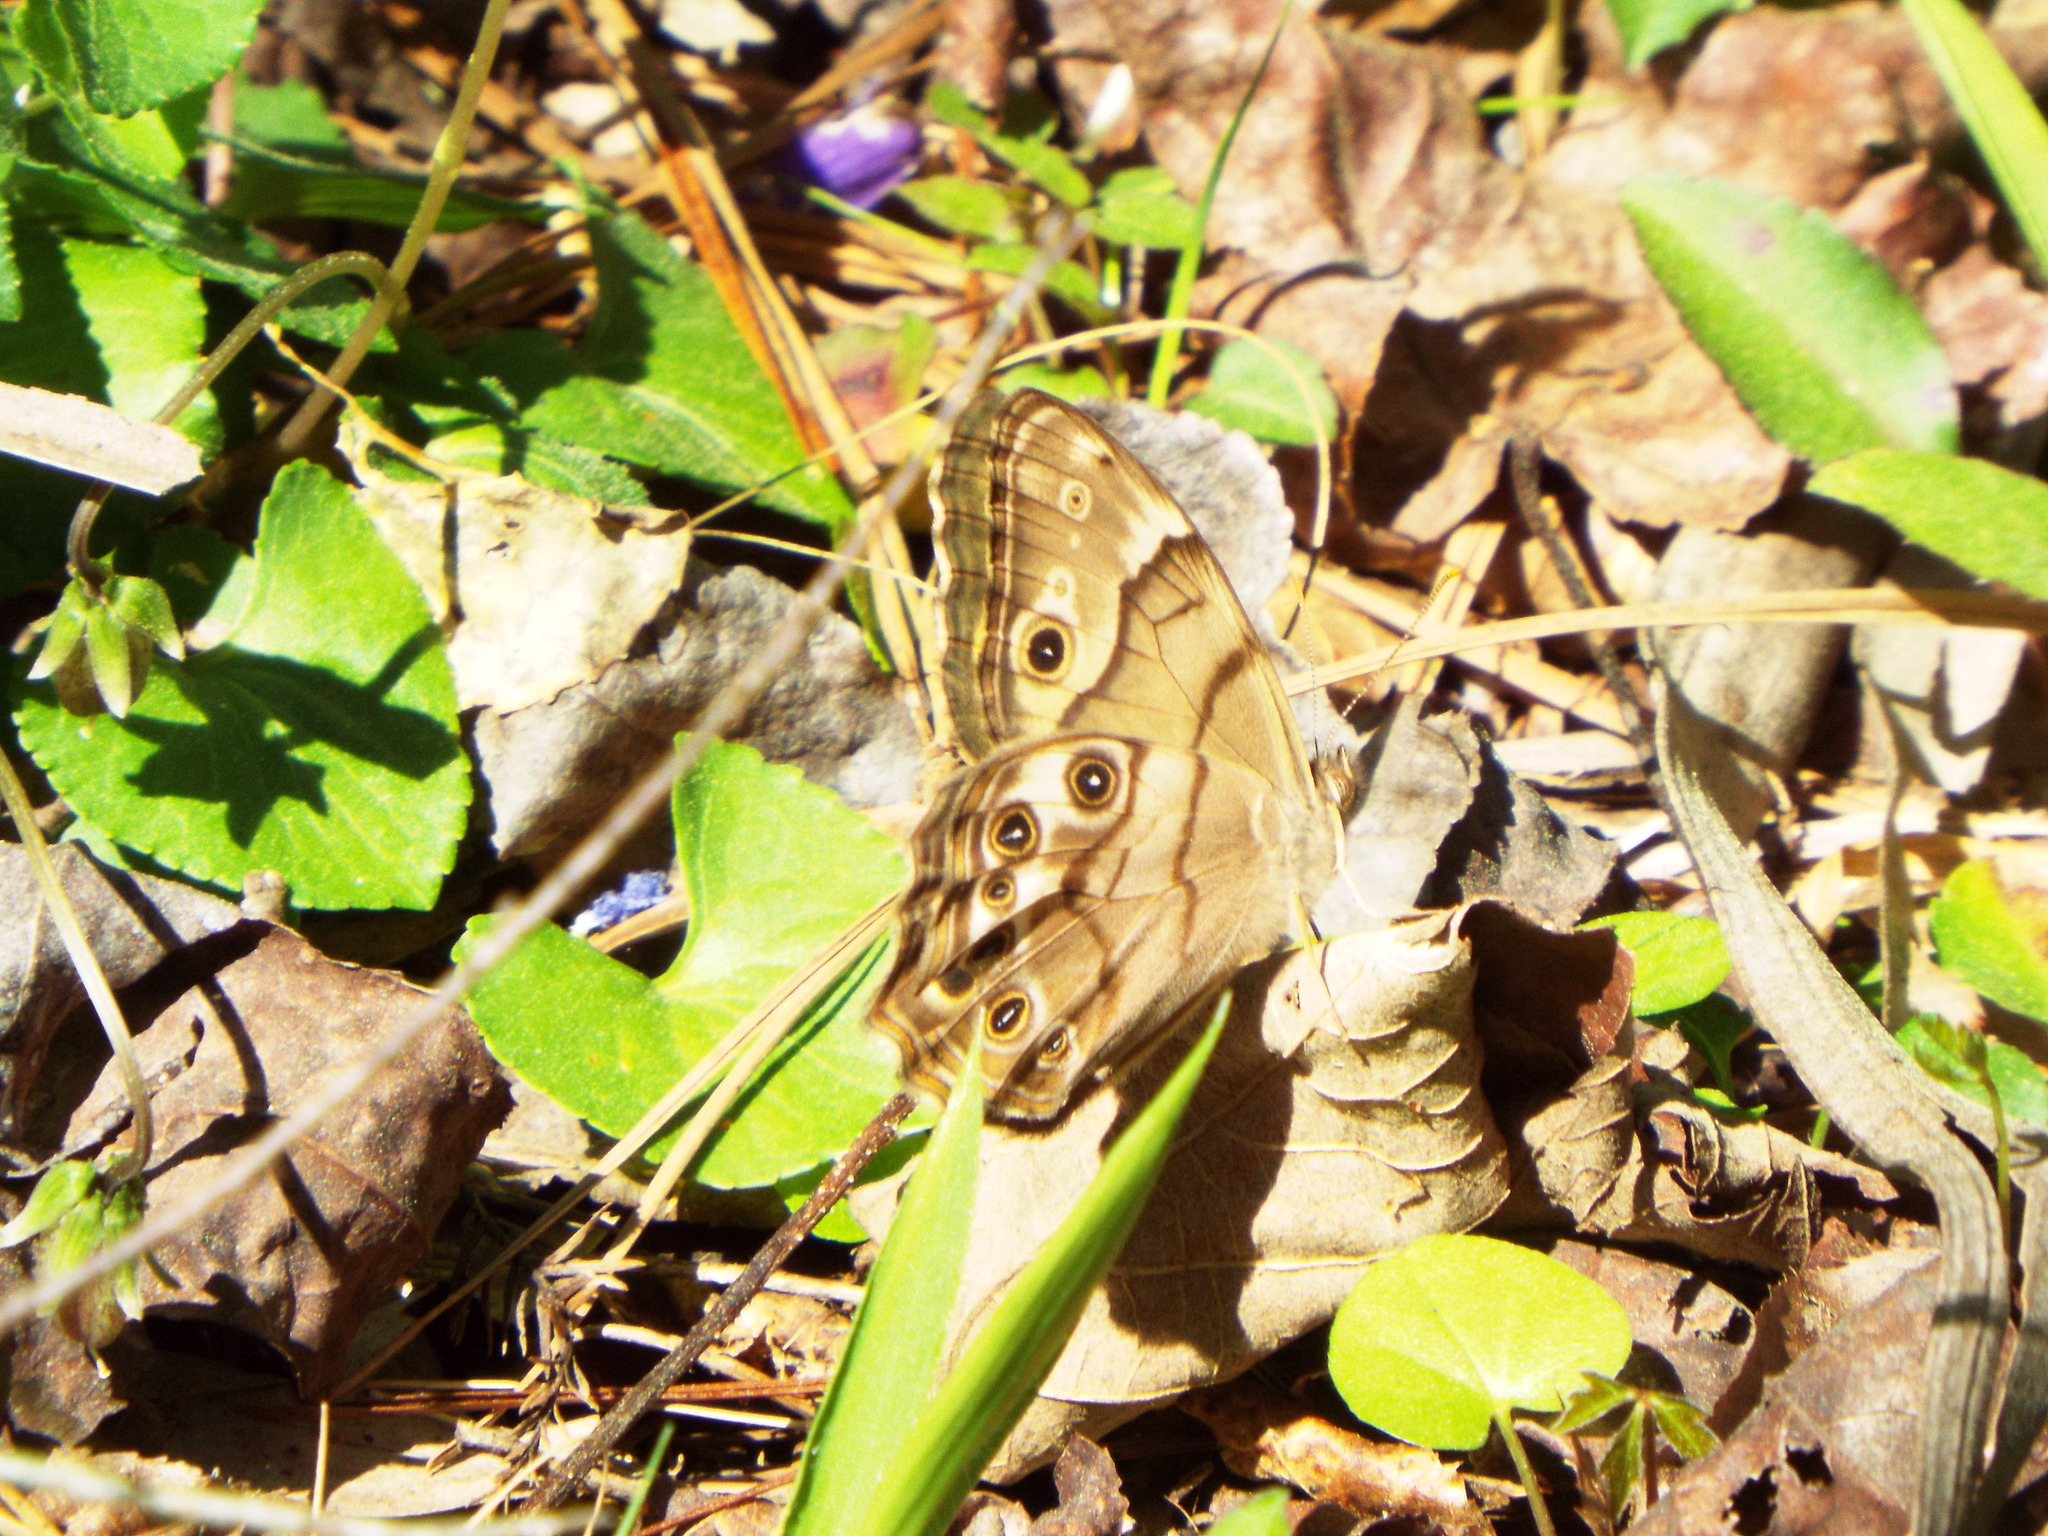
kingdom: Animalia
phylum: Arthropoda
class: Insecta
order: Lepidoptera
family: Nymphalidae
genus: Enodia
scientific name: Enodia portlandia
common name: Southern pearly-eye
